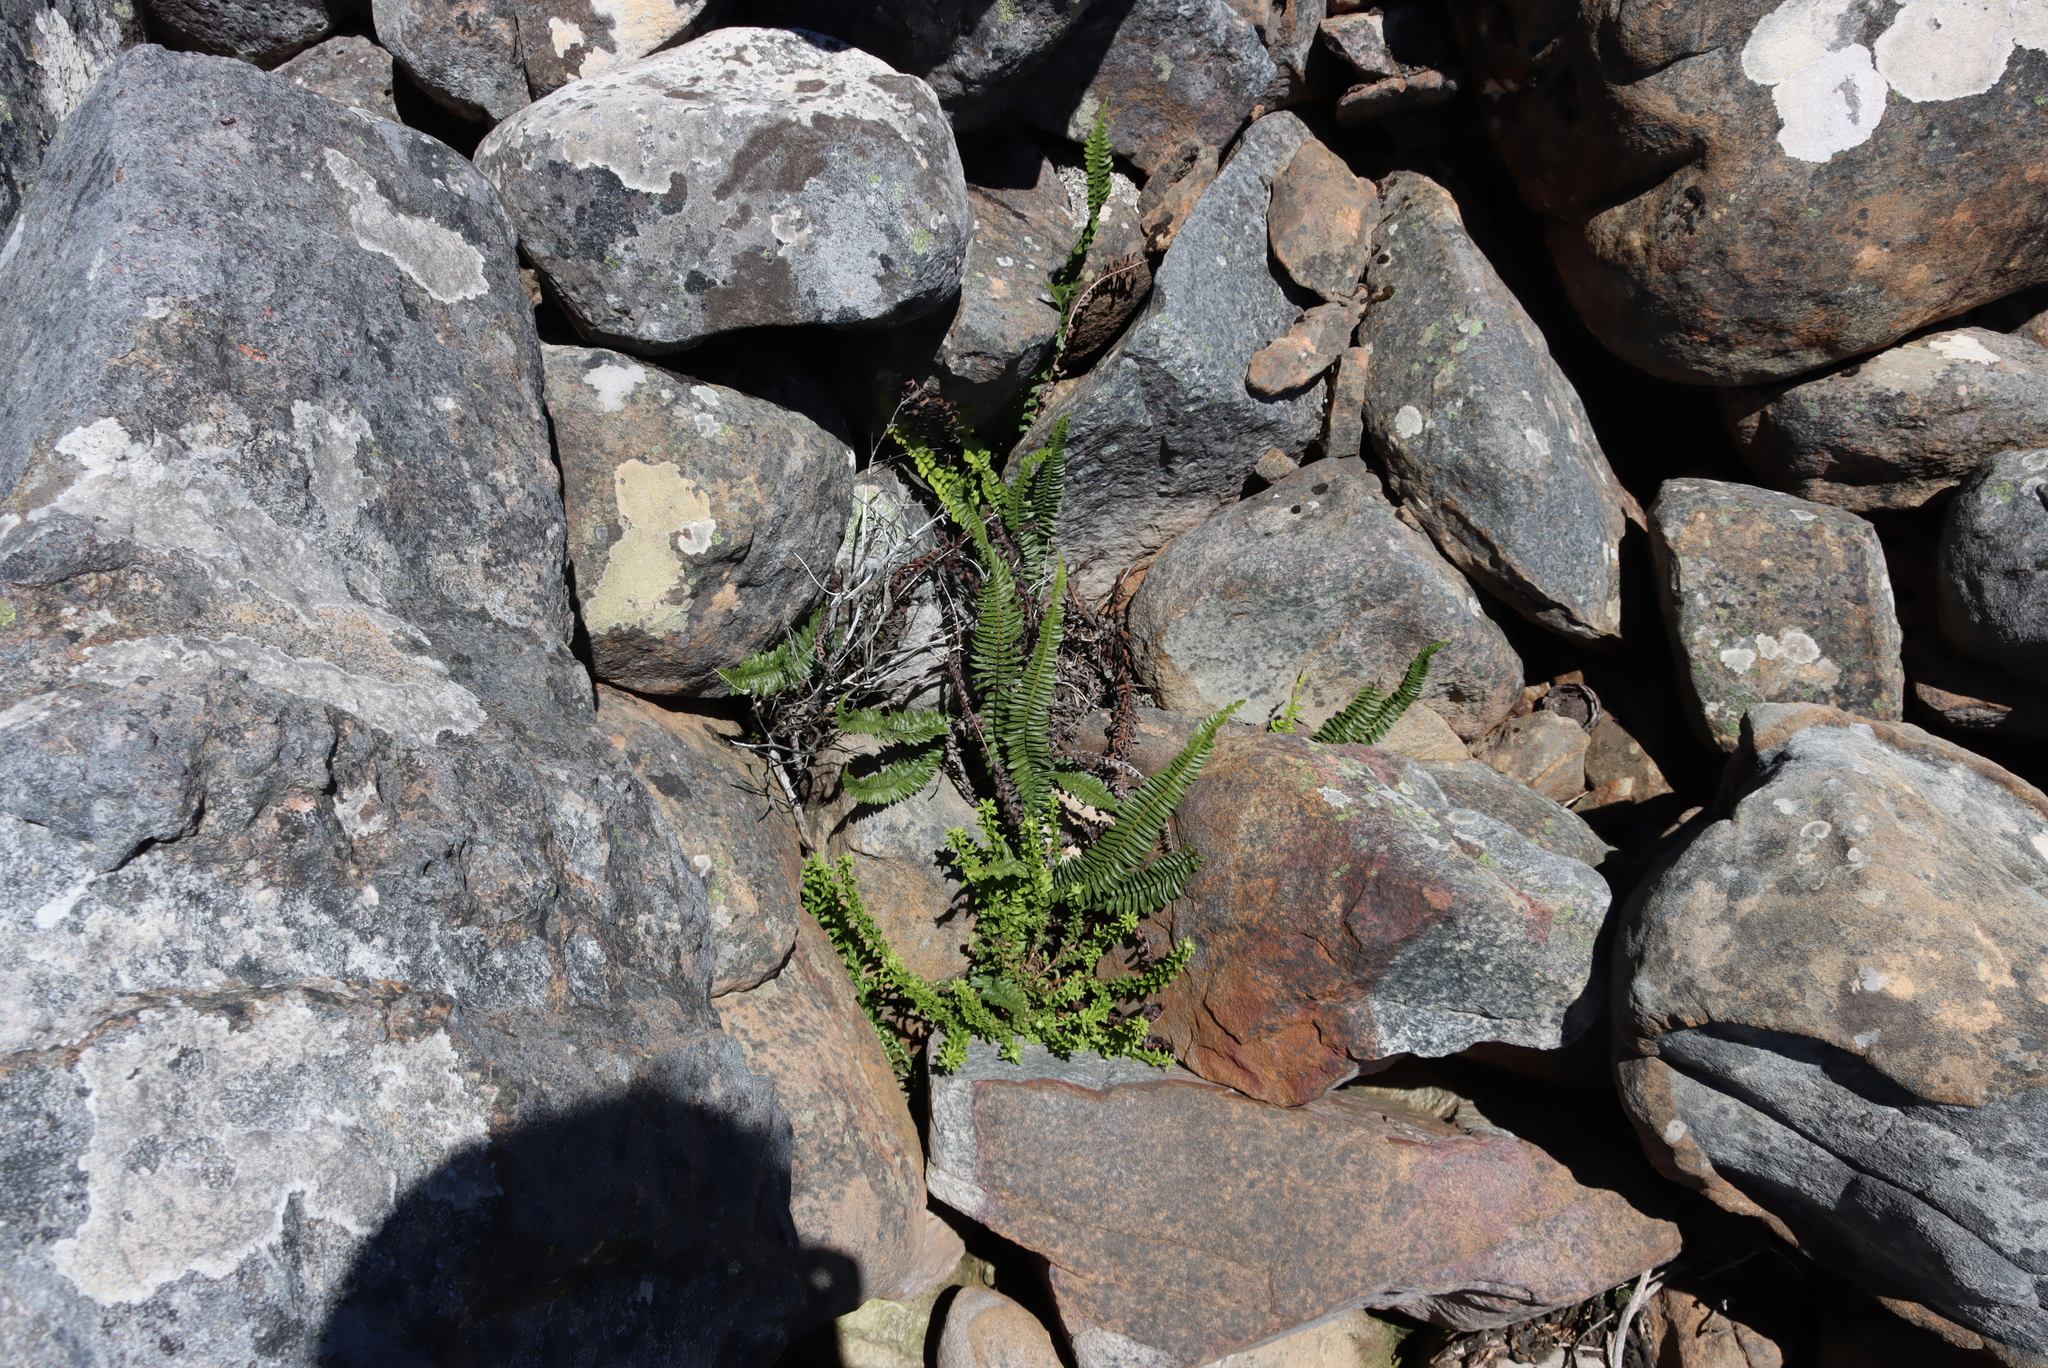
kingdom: Plantae
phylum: Tracheophyta
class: Polypodiopsida
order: Polypodiales
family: Blechnaceae
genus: Blechnum
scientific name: Blechnum australe
